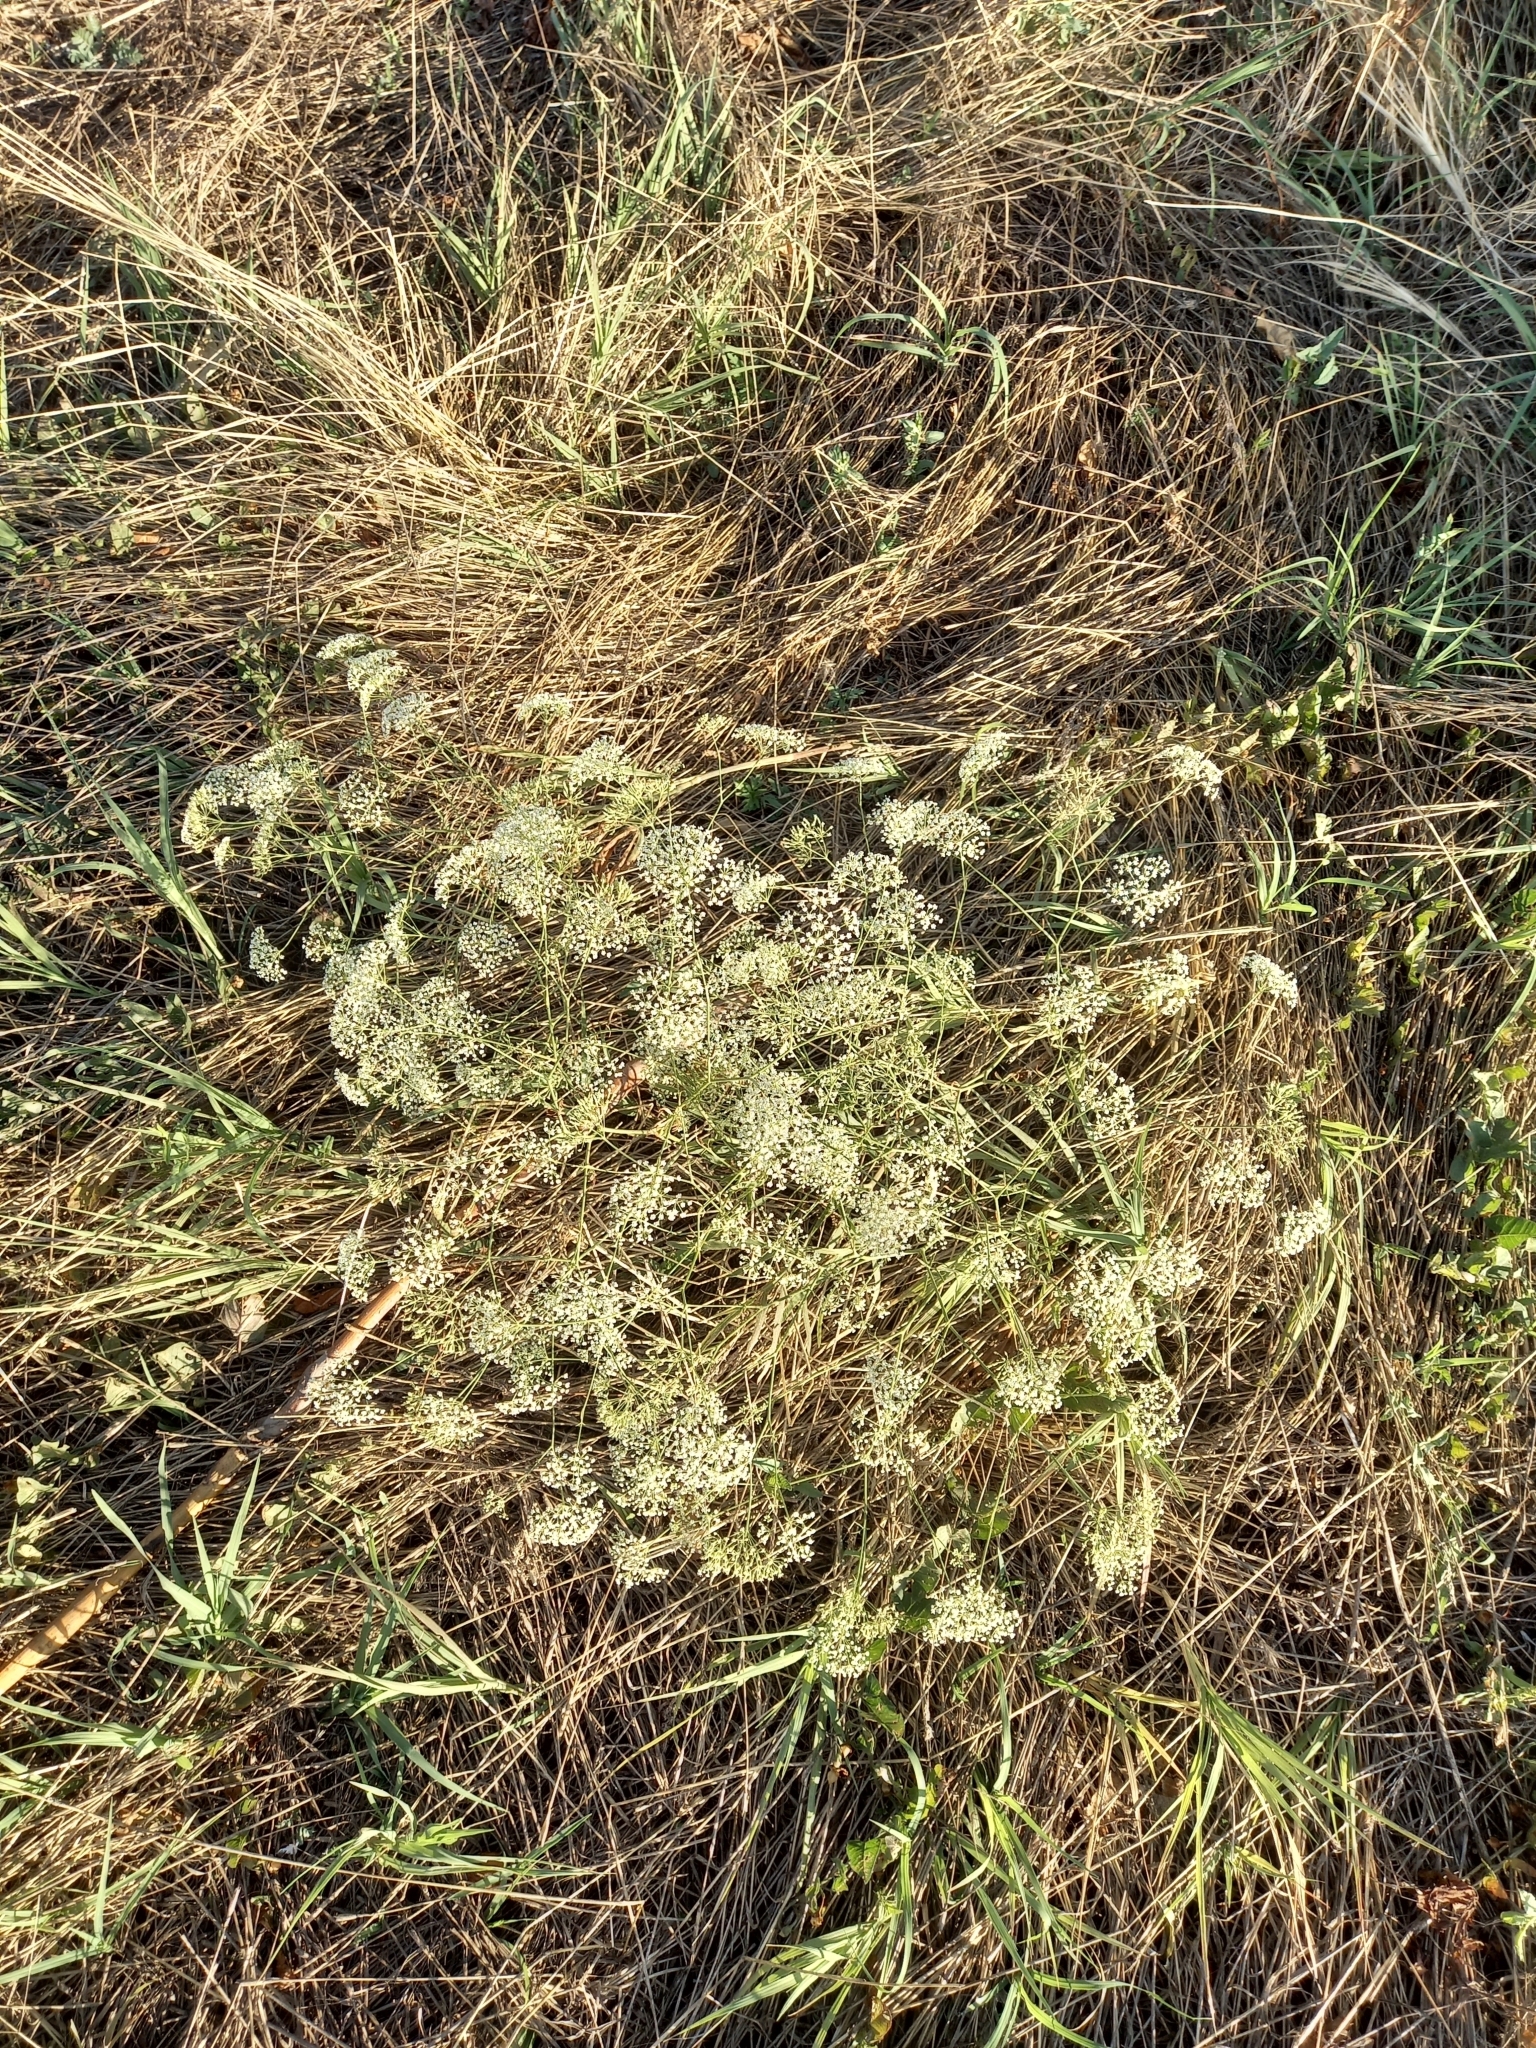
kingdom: Plantae
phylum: Tracheophyta
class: Magnoliopsida
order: Apiales
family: Apiaceae
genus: Falcaria
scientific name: Falcaria vulgaris
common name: Longleaf
